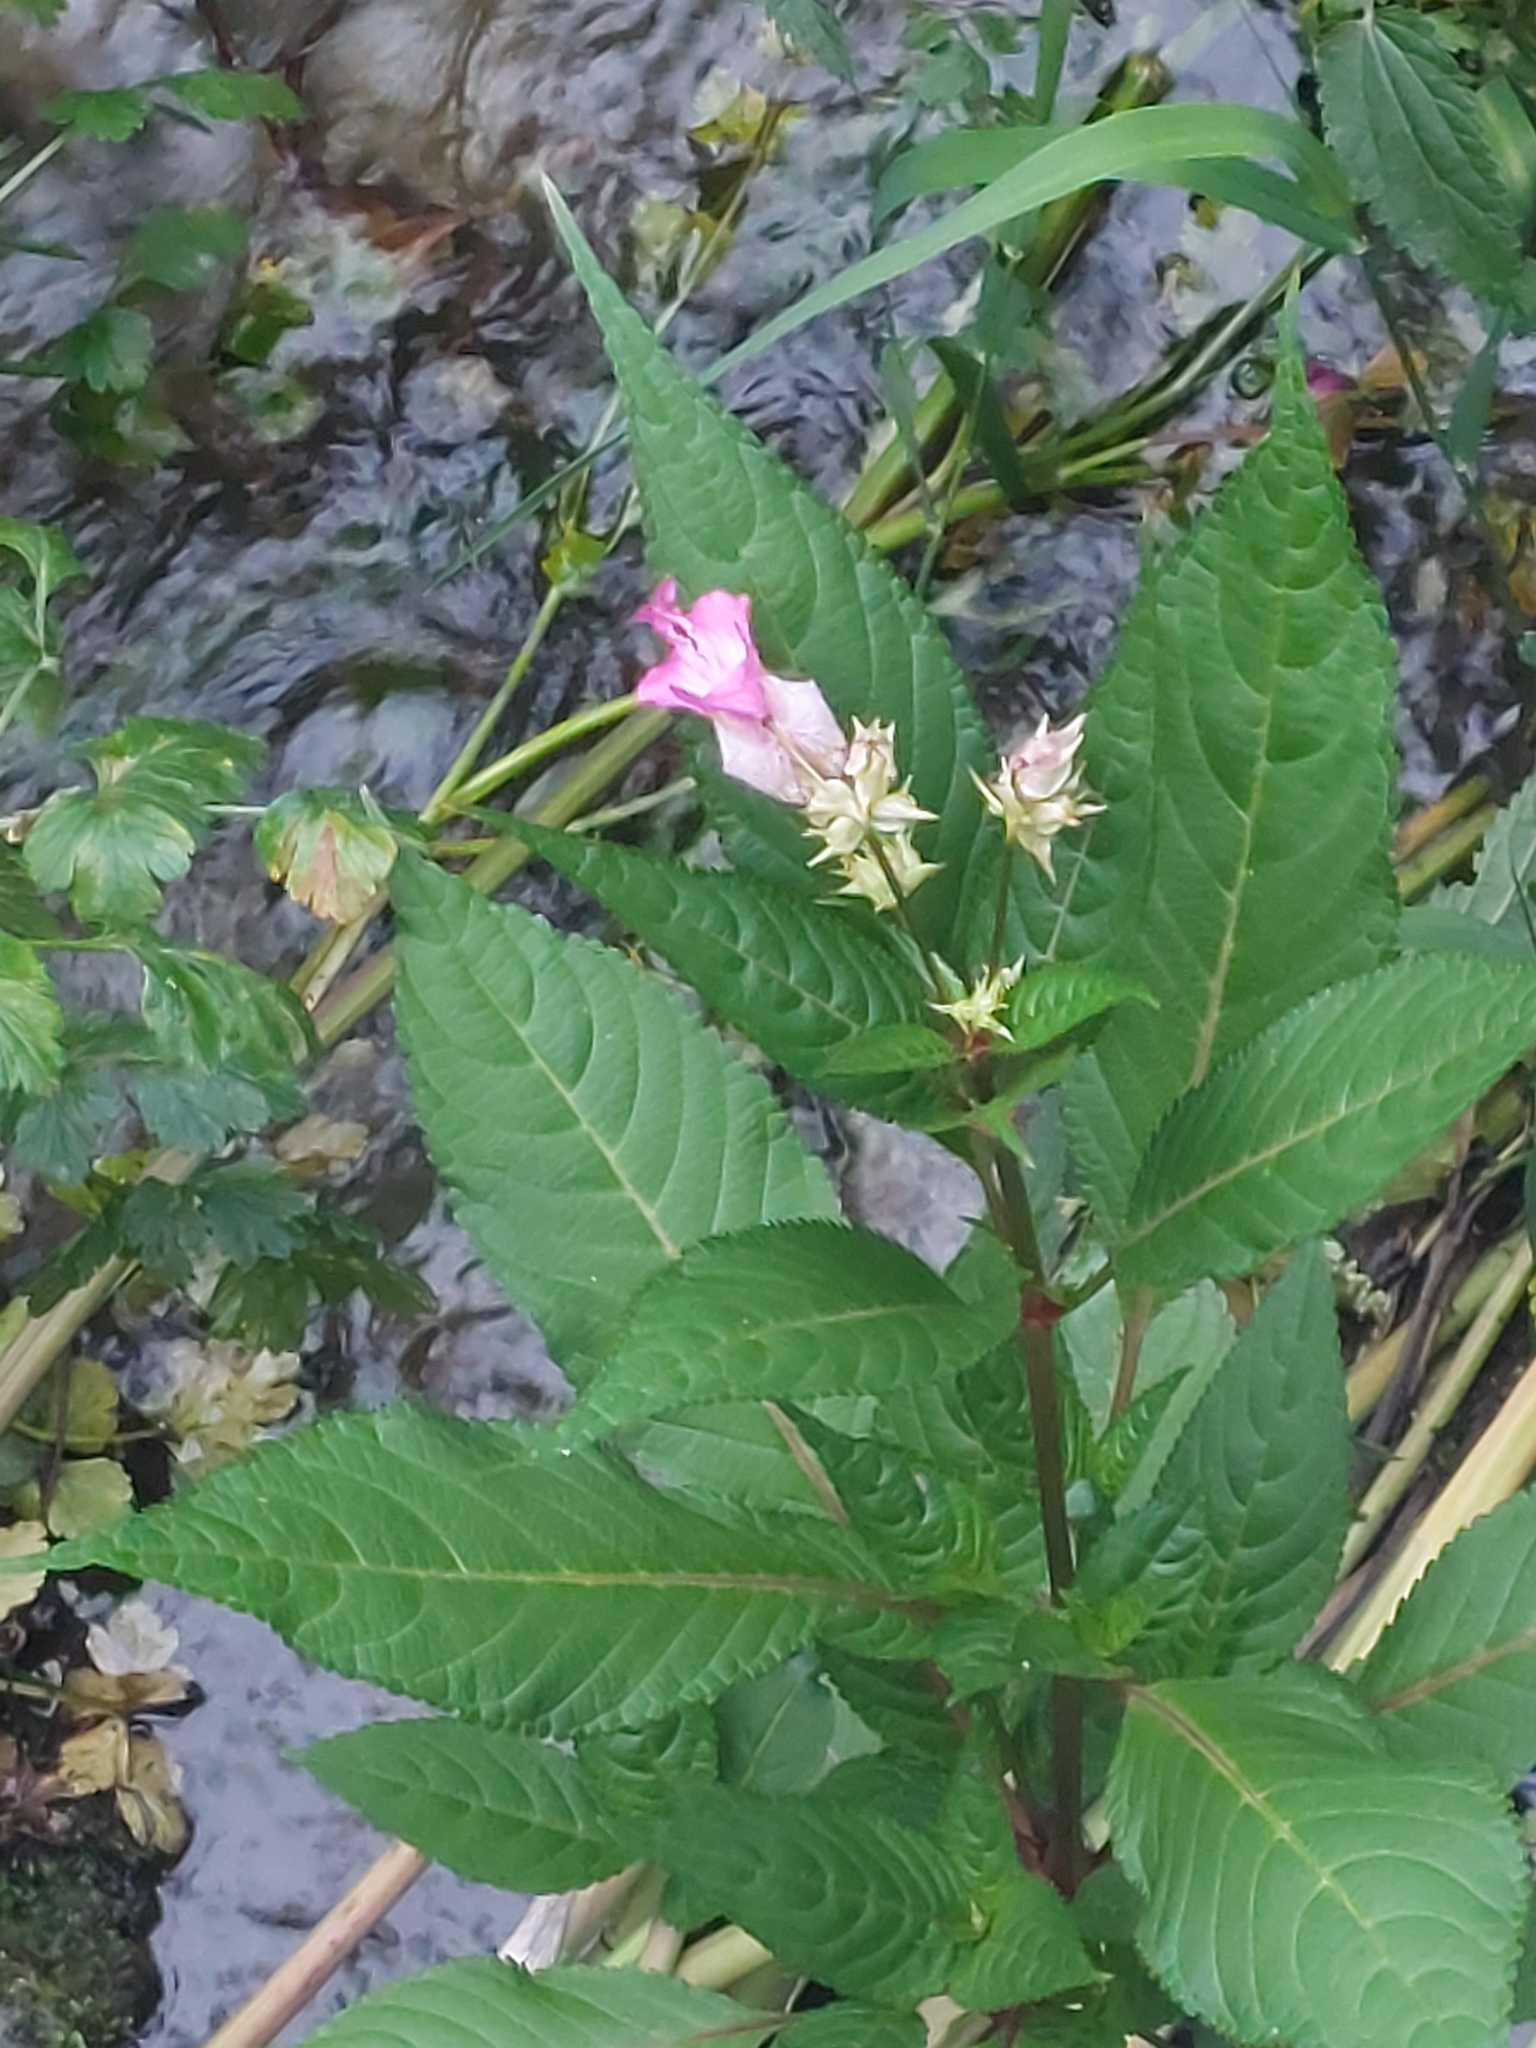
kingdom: Plantae
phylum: Tracheophyta
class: Magnoliopsida
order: Ericales
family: Balsaminaceae
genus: Impatiens
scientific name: Impatiens glandulifera
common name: Himalayan balsam
